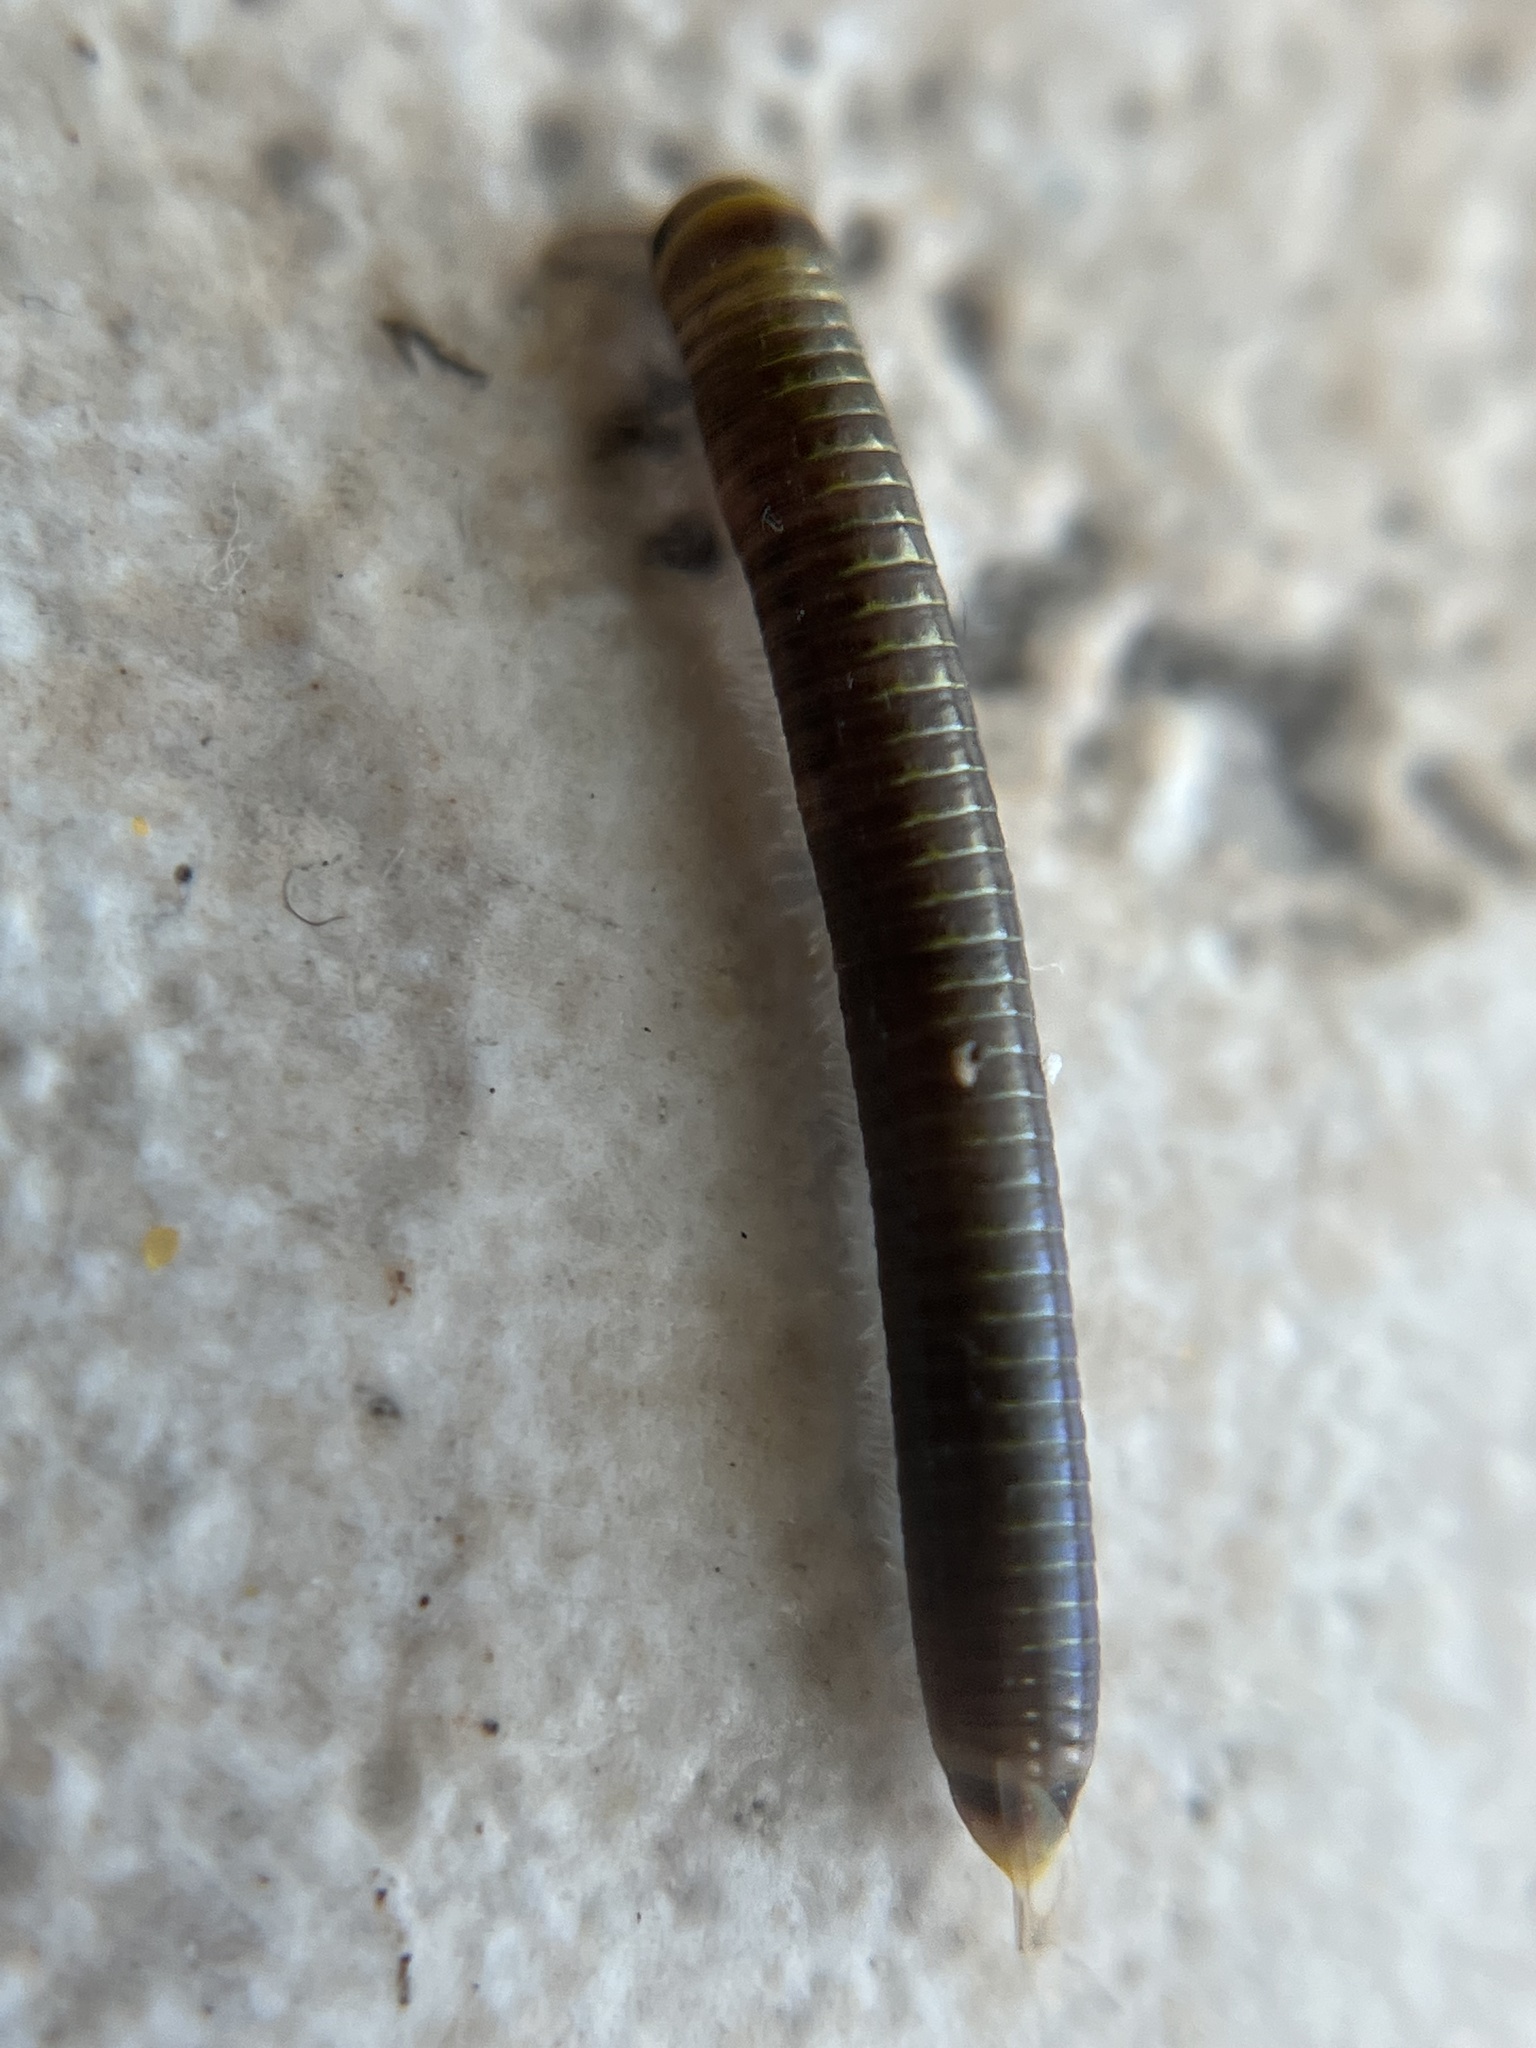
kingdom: Animalia
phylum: Arthropoda
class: Diplopoda
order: Spirobolida
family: Rhinocricidae
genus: Anadenobolus
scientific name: Anadenobolus monilicornis
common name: Caribbean millipede
